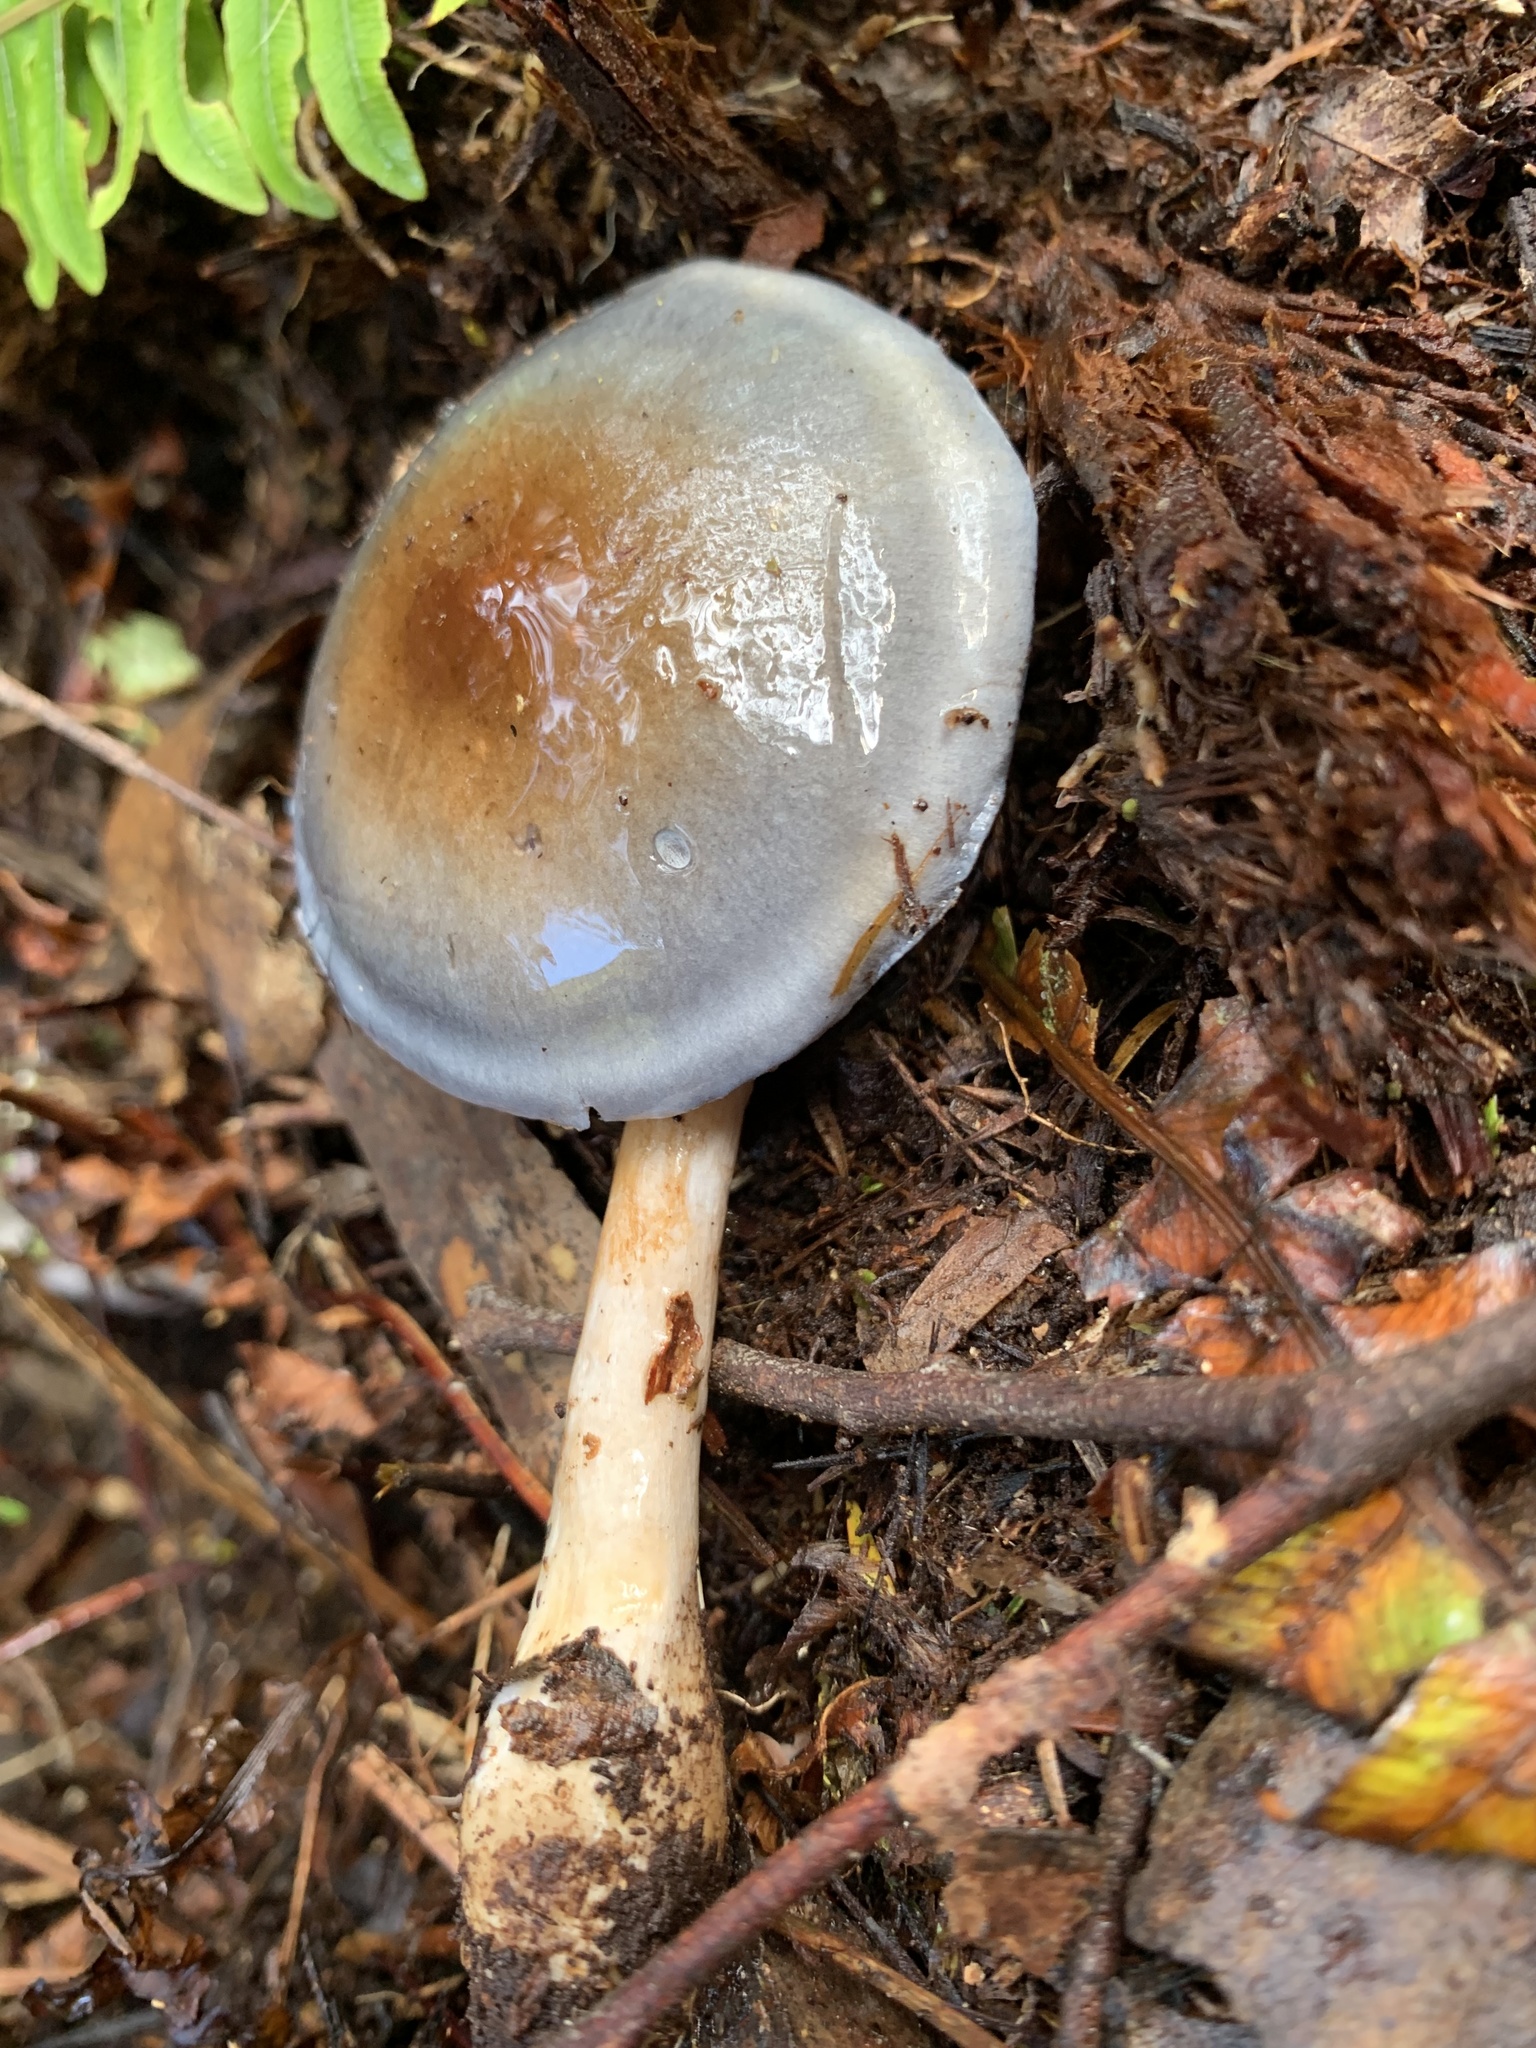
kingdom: Fungi
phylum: Basidiomycota
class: Agaricomycetes
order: Agaricales
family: Cortinariaceae
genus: Cortinarius
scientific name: Cortinarius rotundisporus
